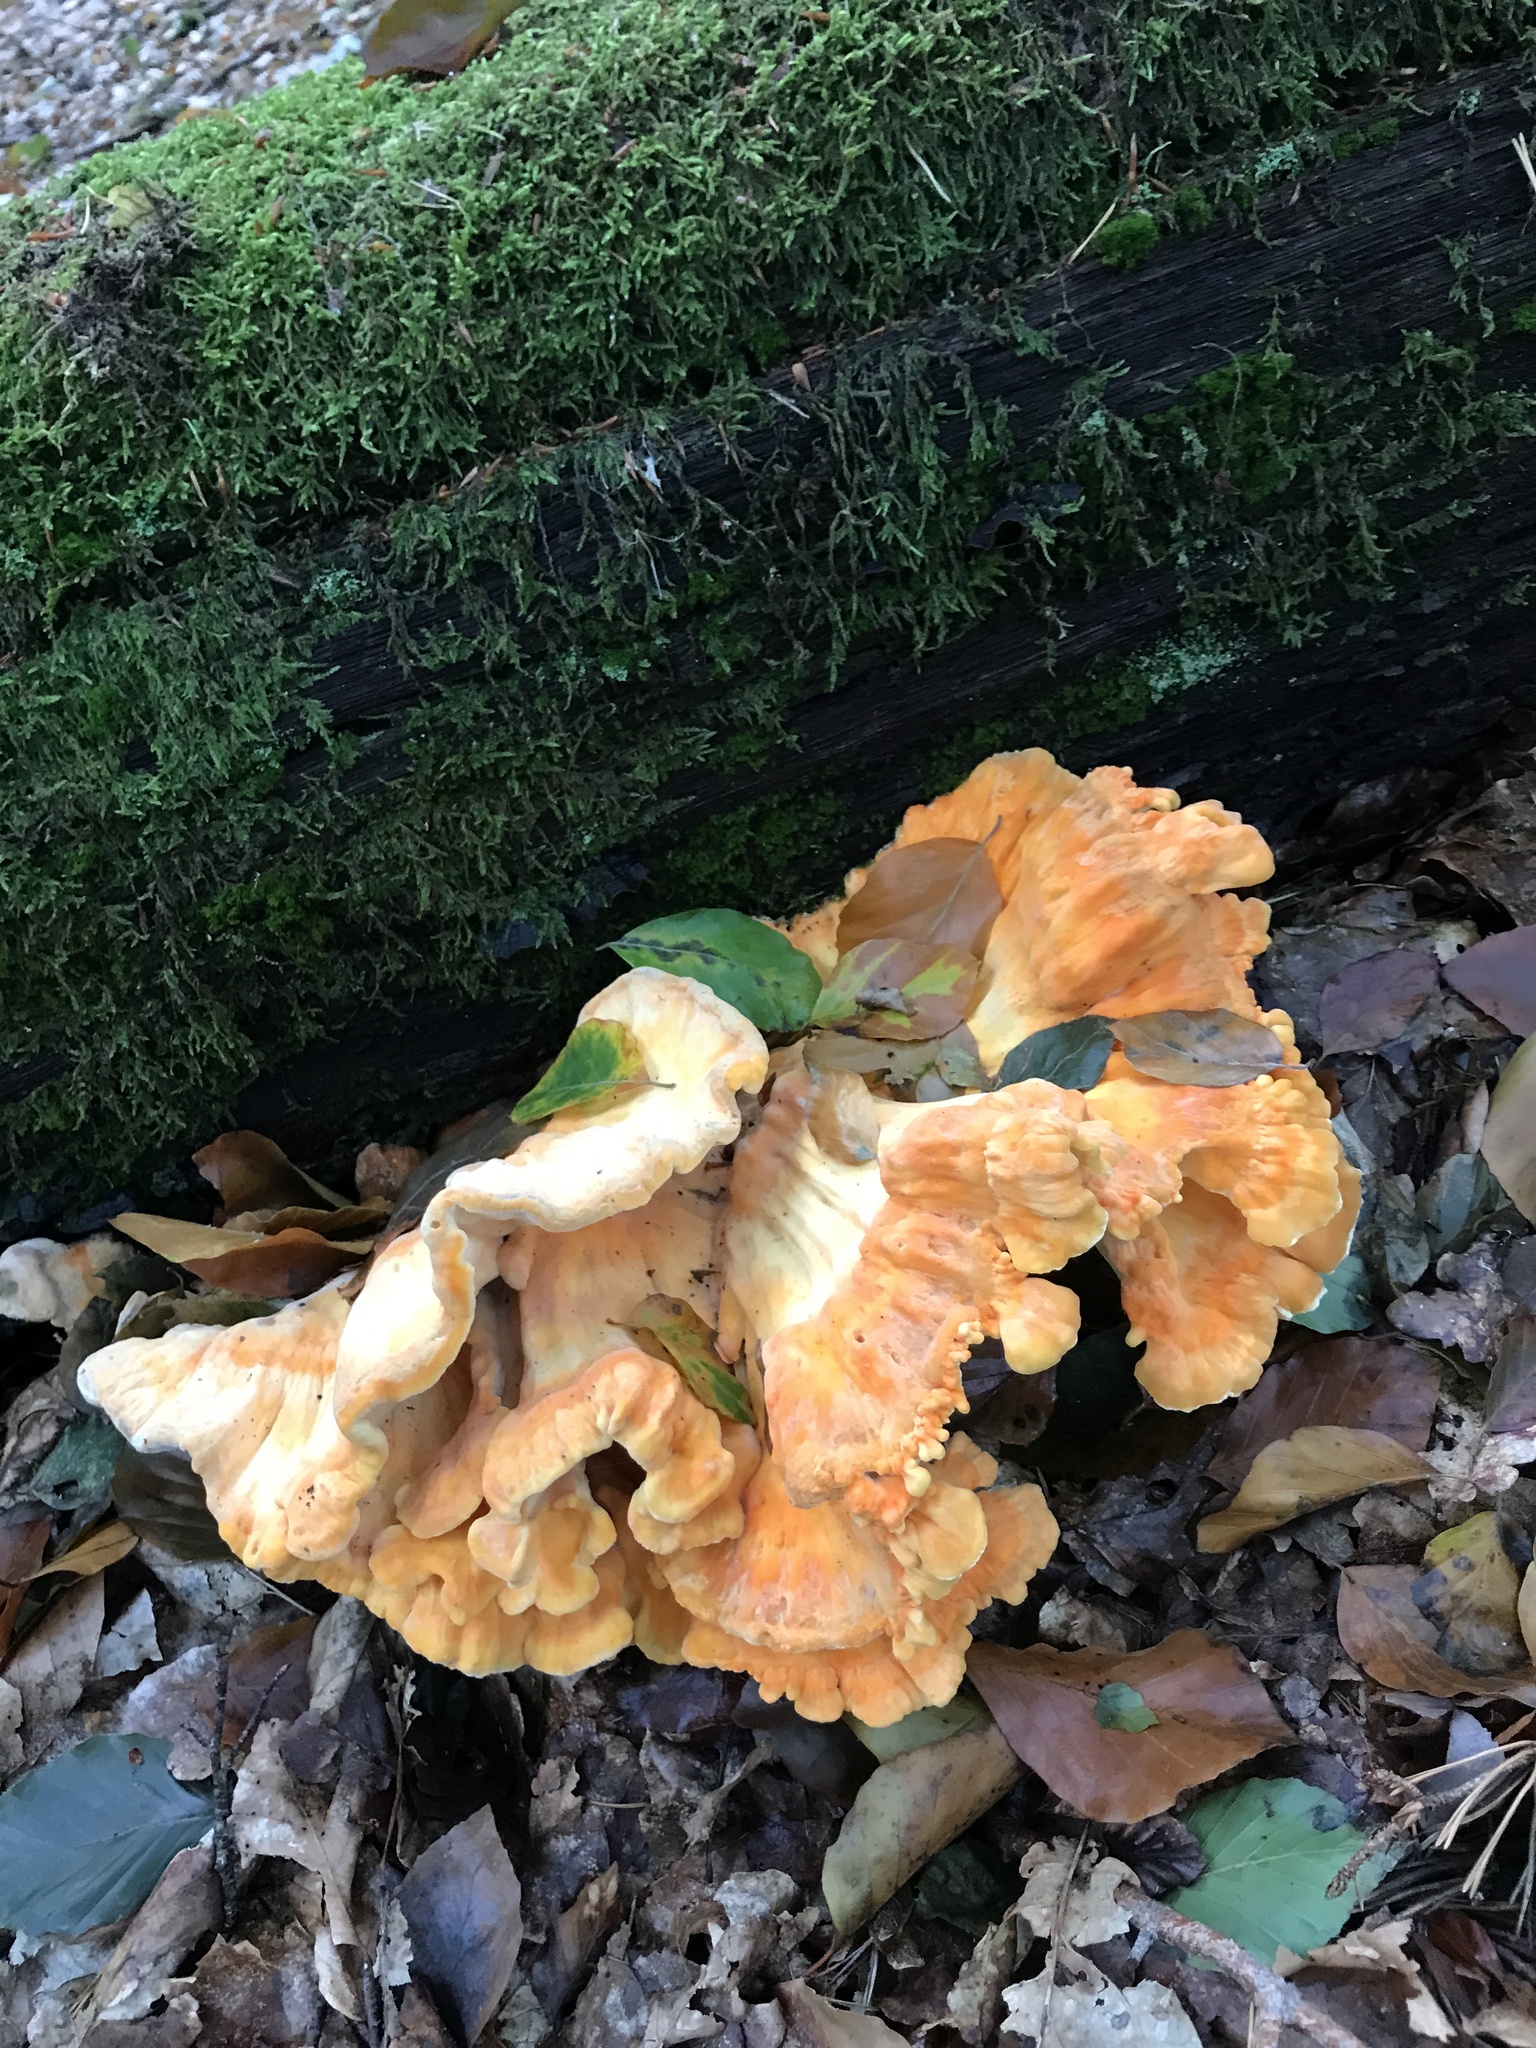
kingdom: Fungi
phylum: Basidiomycota
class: Agaricomycetes
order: Polyporales
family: Laetiporaceae
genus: Laetiporus
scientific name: Laetiporus sulphureus
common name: Chicken of the woods
